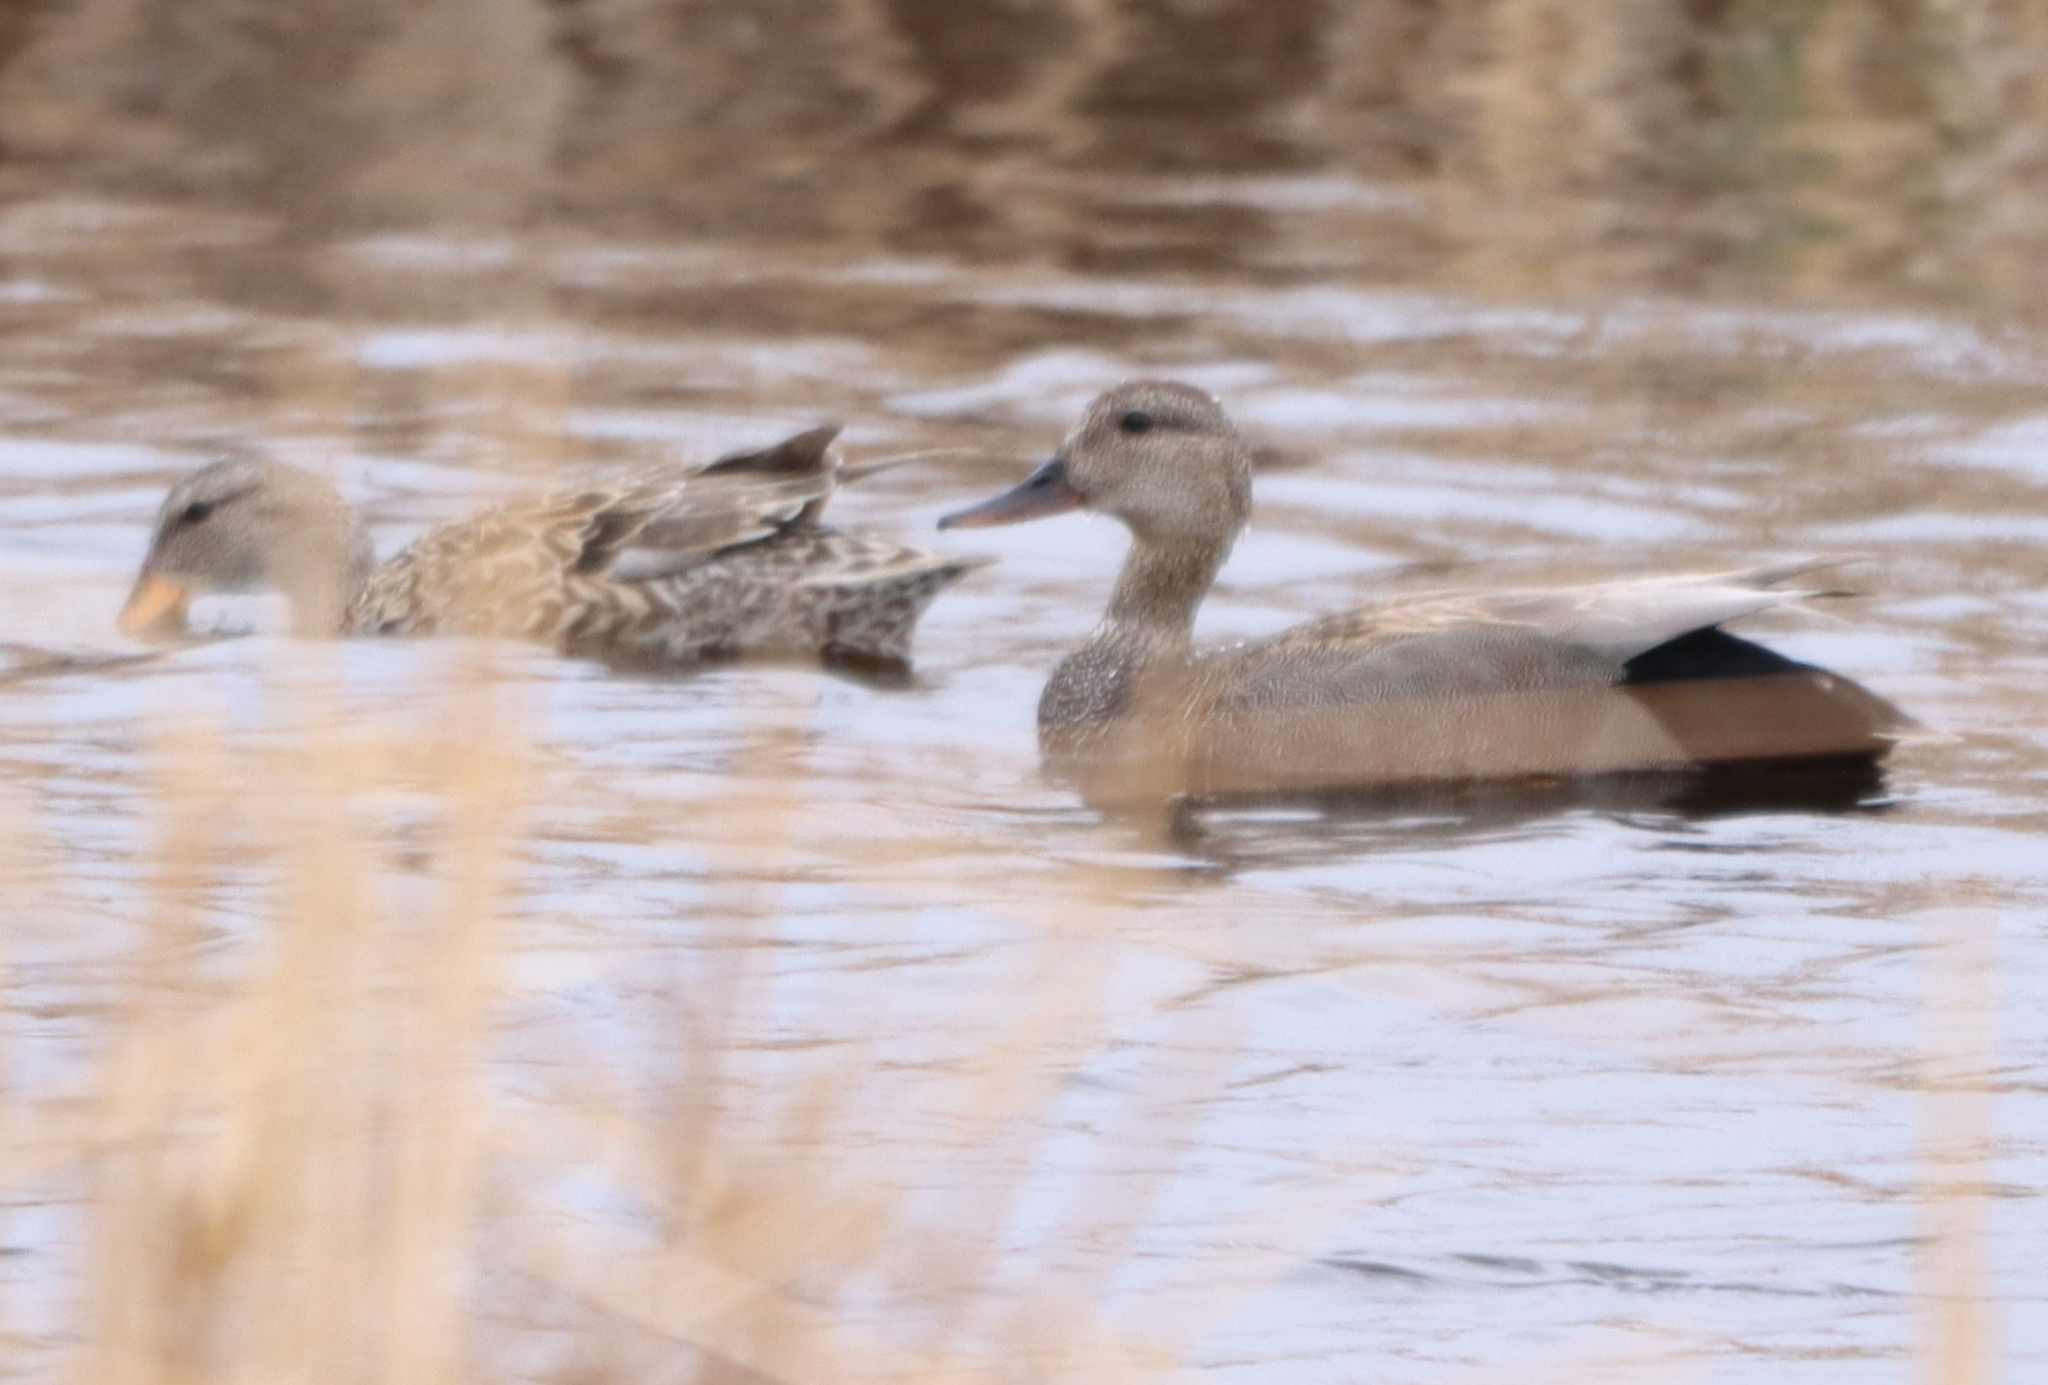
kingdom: Animalia
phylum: Chordata
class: Aves
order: Anseriformes
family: Anatidae
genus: Mareca
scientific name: Mareca strepera
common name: Gadwall
